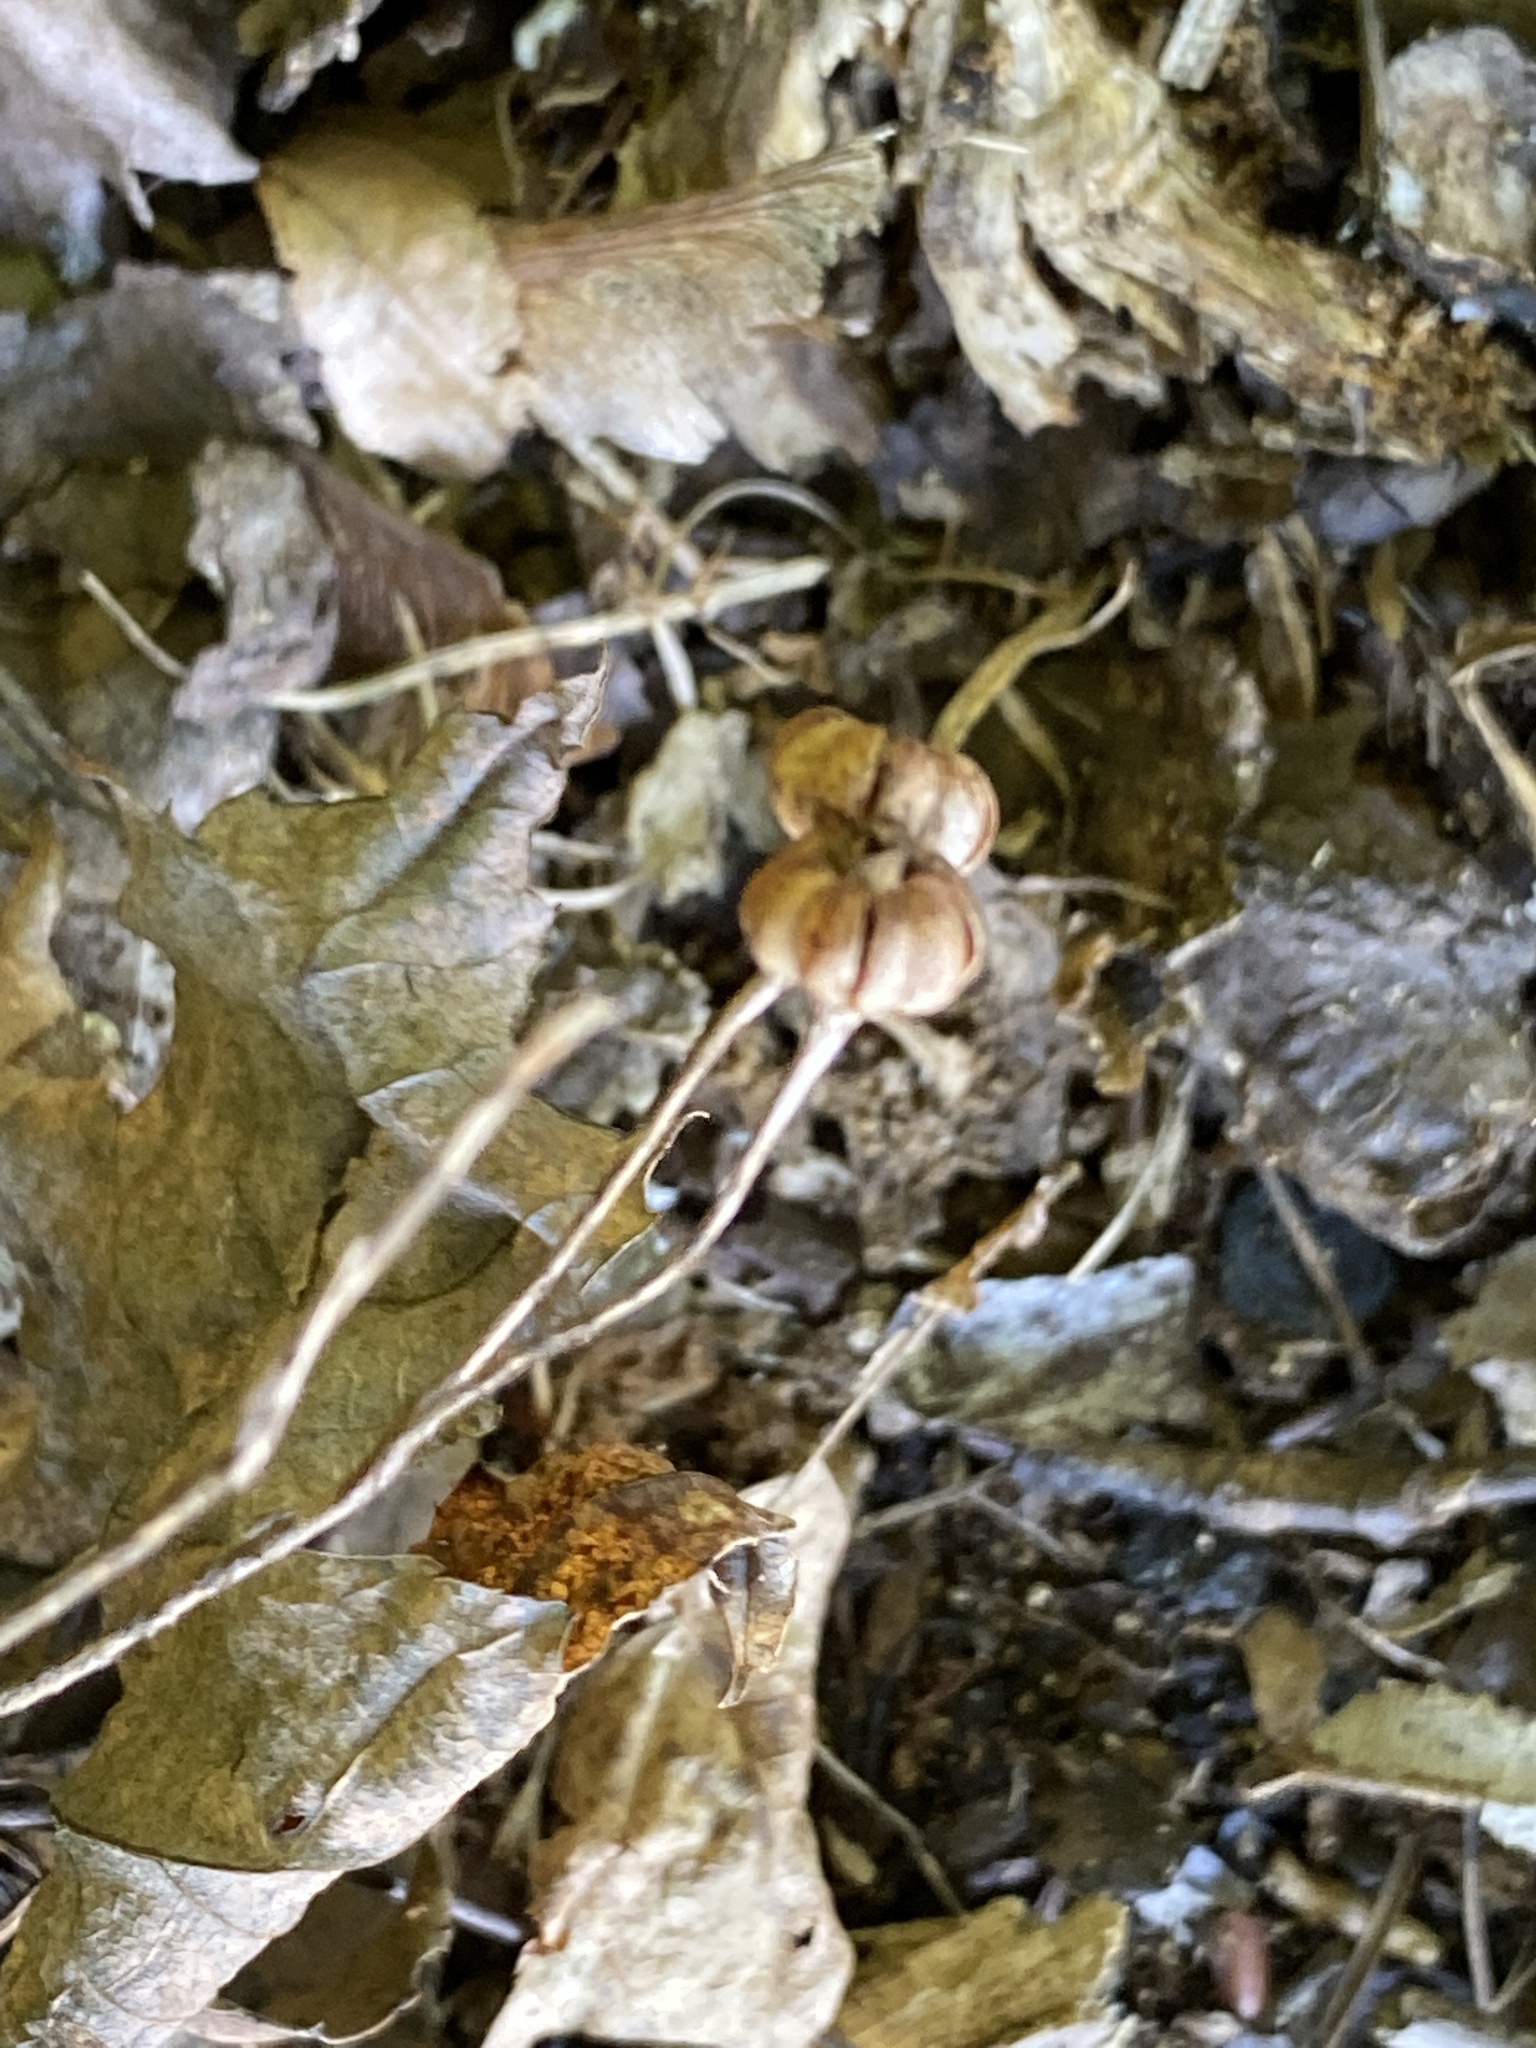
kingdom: Plantae
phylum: Tracheophyta
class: Magnoliopsida
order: Ericales
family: Ericaceae
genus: Chimaphila
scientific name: Chimaphila maculata
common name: Spotted pipsissewa
